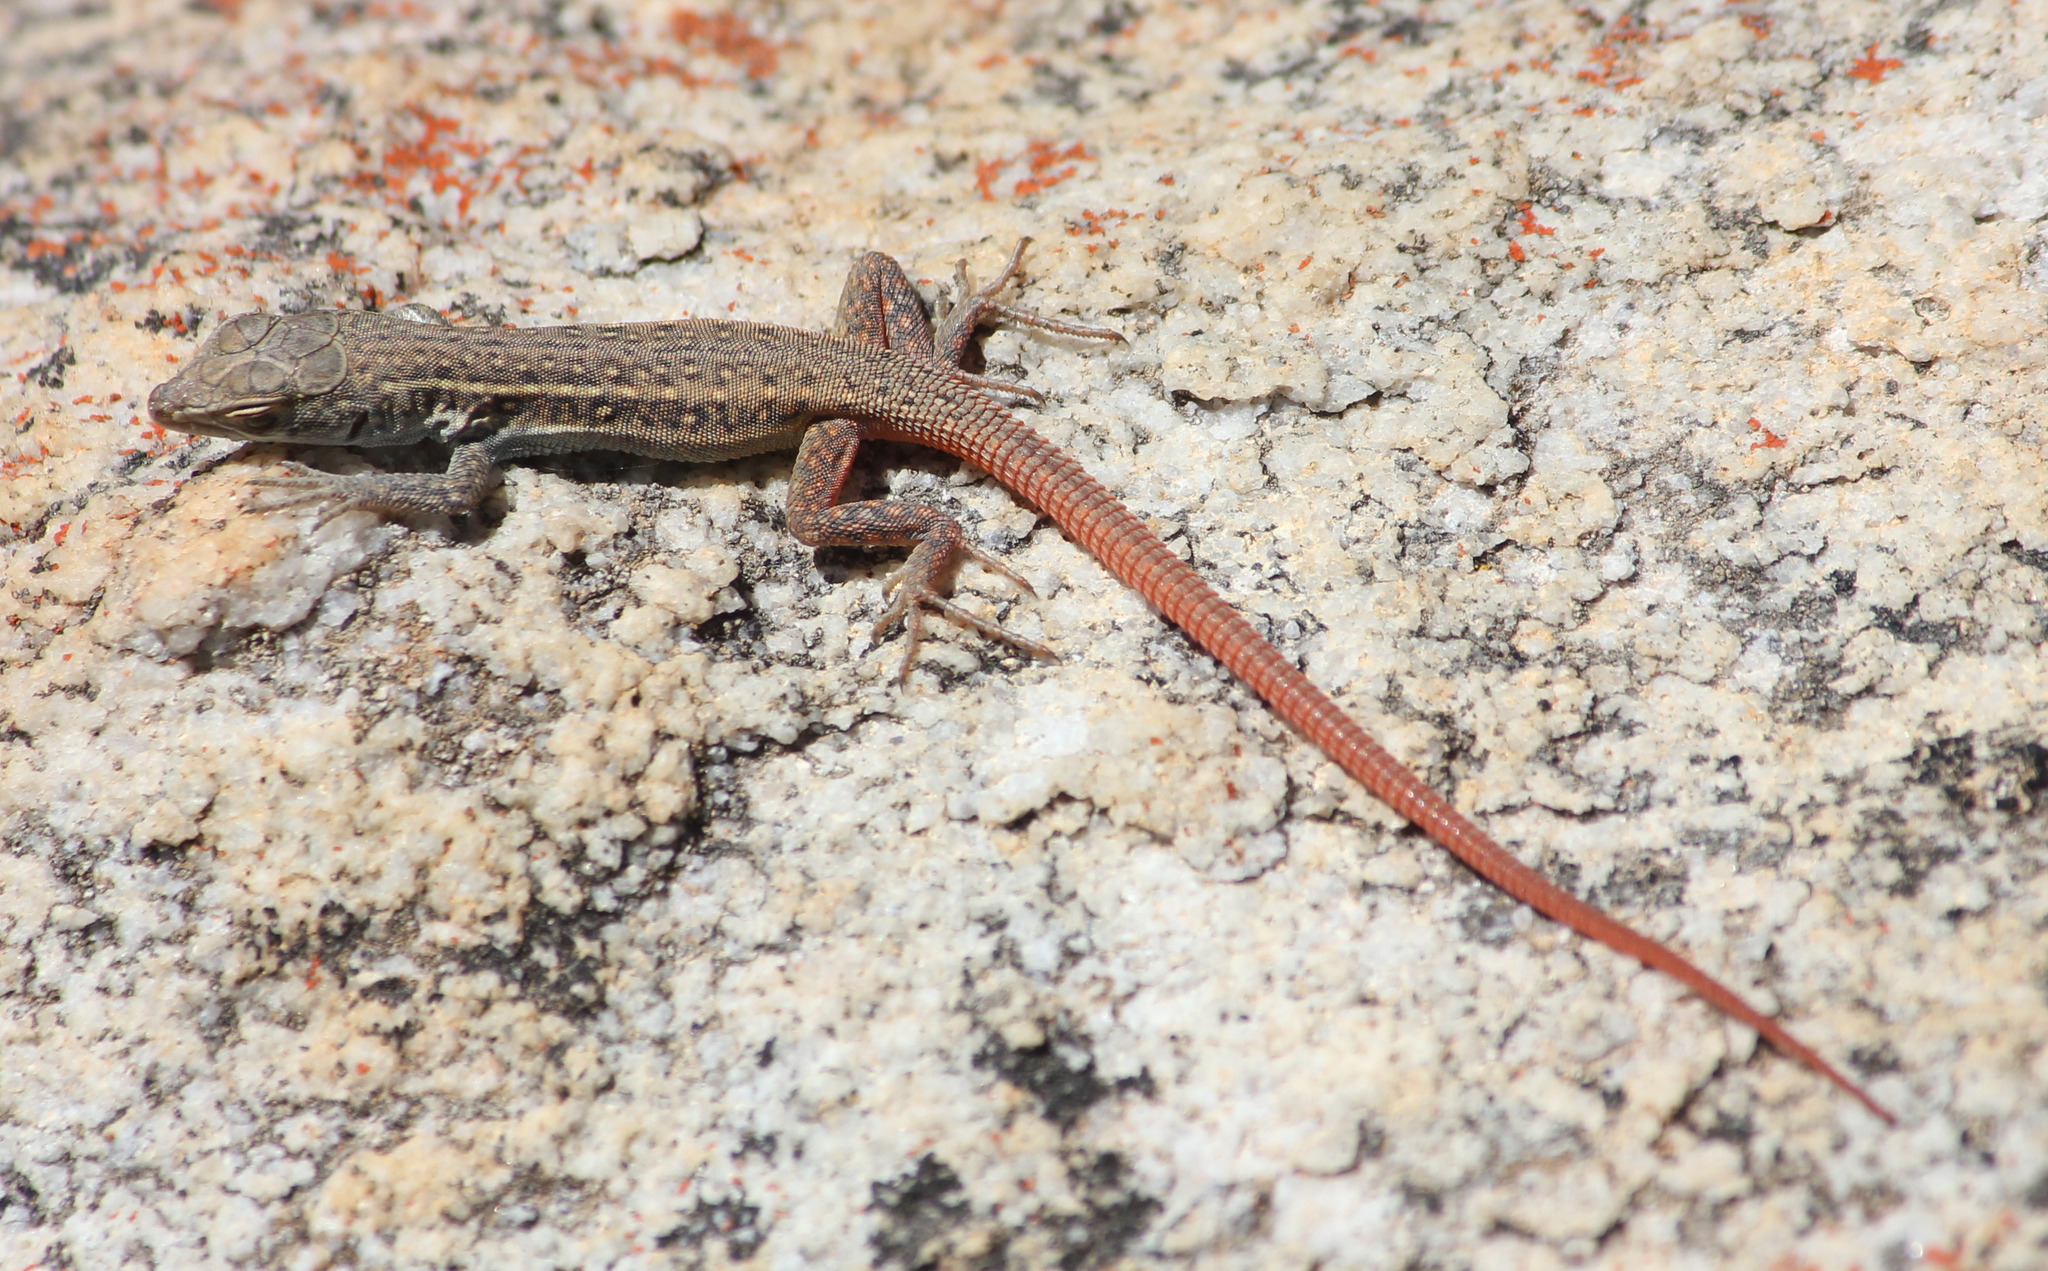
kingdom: Animalia
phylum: Chordata
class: Squamata
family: Lacertidae
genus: Pedioplanis
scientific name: Pedioplanis lineoocellata
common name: Spotted sand lizard
